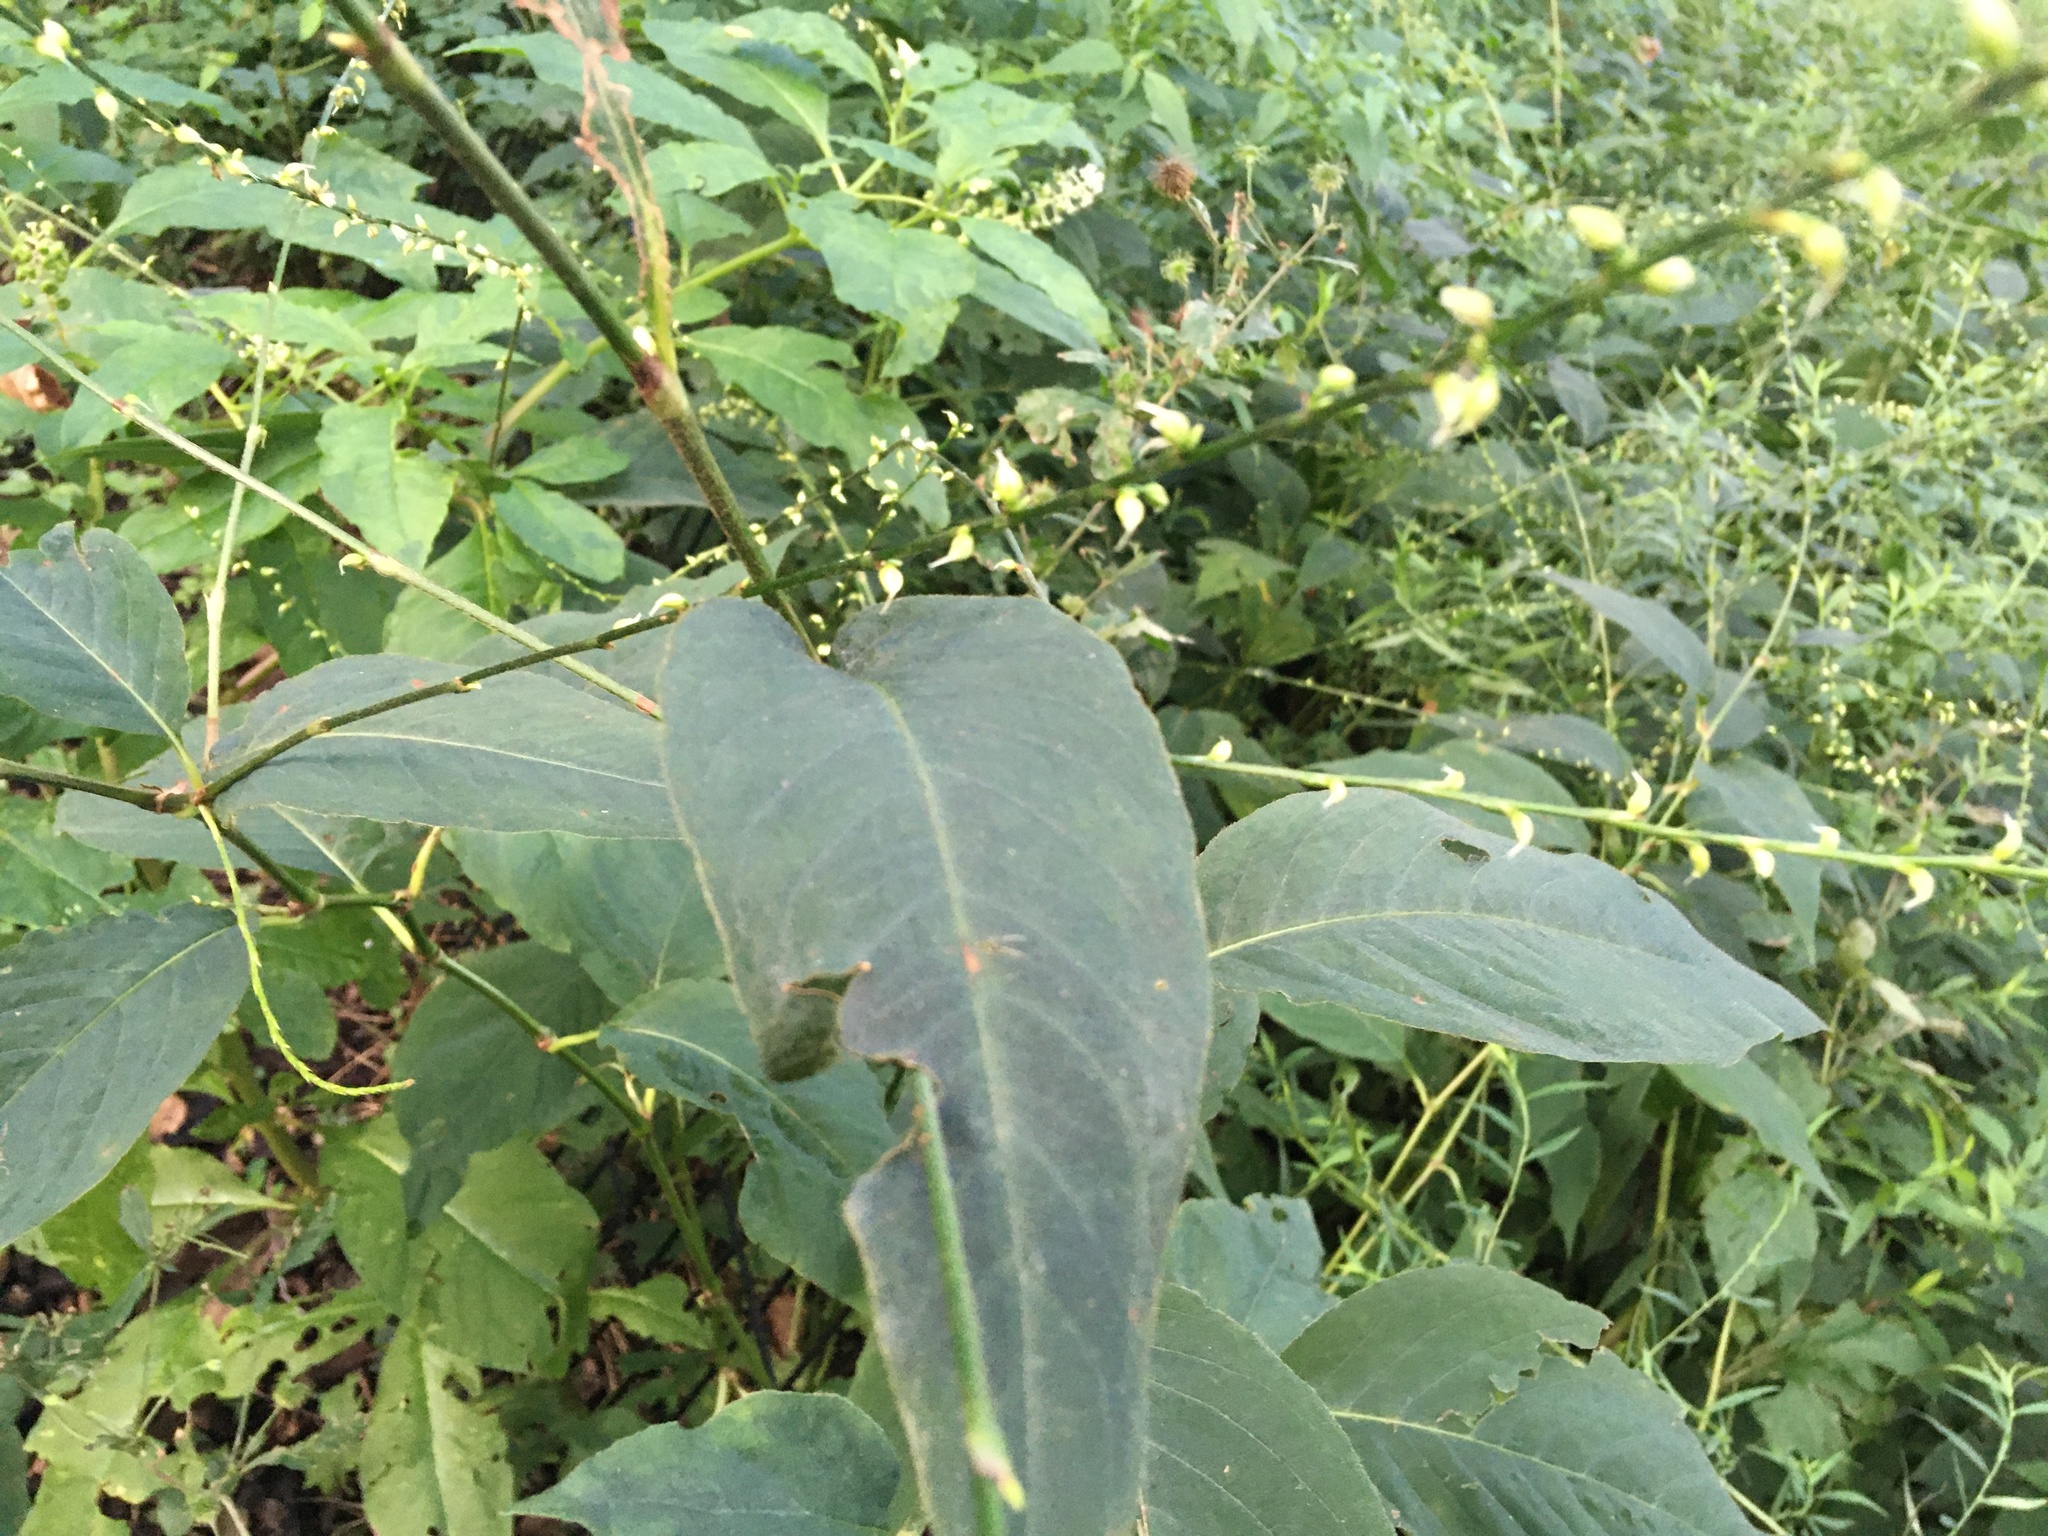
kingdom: Plantae
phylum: Tracheophyta
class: Magnoliopsida
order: Caryophyllales
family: Polygonaceae
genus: Persicaria
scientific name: Persicaria virginiana
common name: Jumpseed
